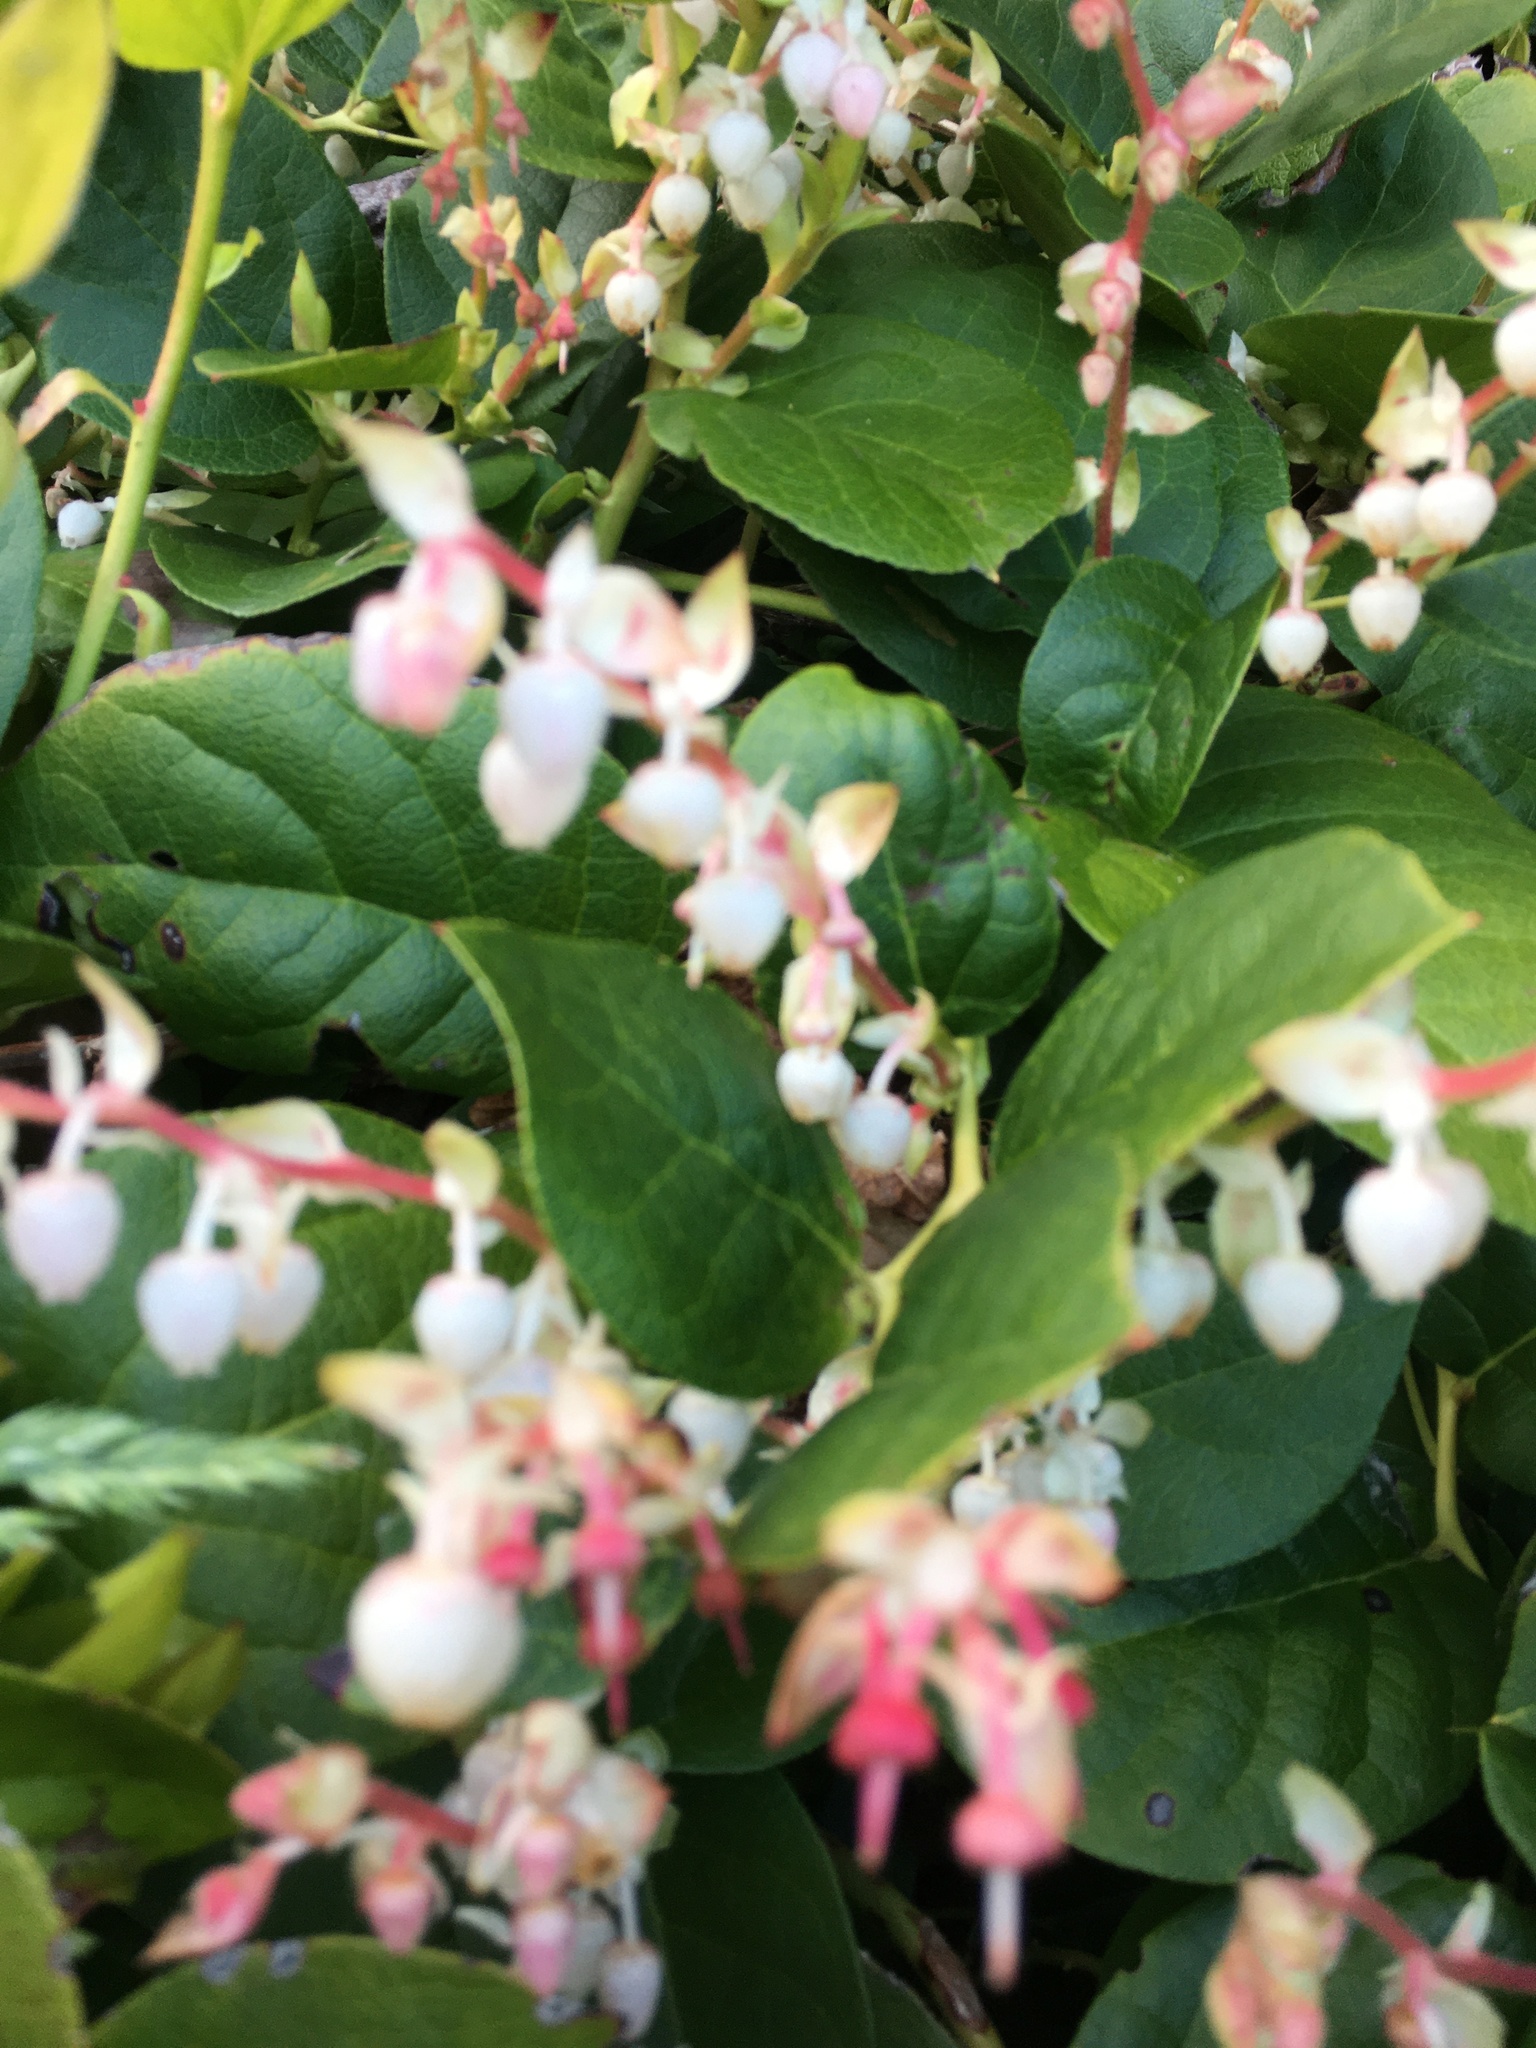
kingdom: Plantae
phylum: Tracheophyta
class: Magnoliopsida
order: Ericales
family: Ericaceae
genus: Gaultheria
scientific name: Gaultheria shallon
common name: Shallon
